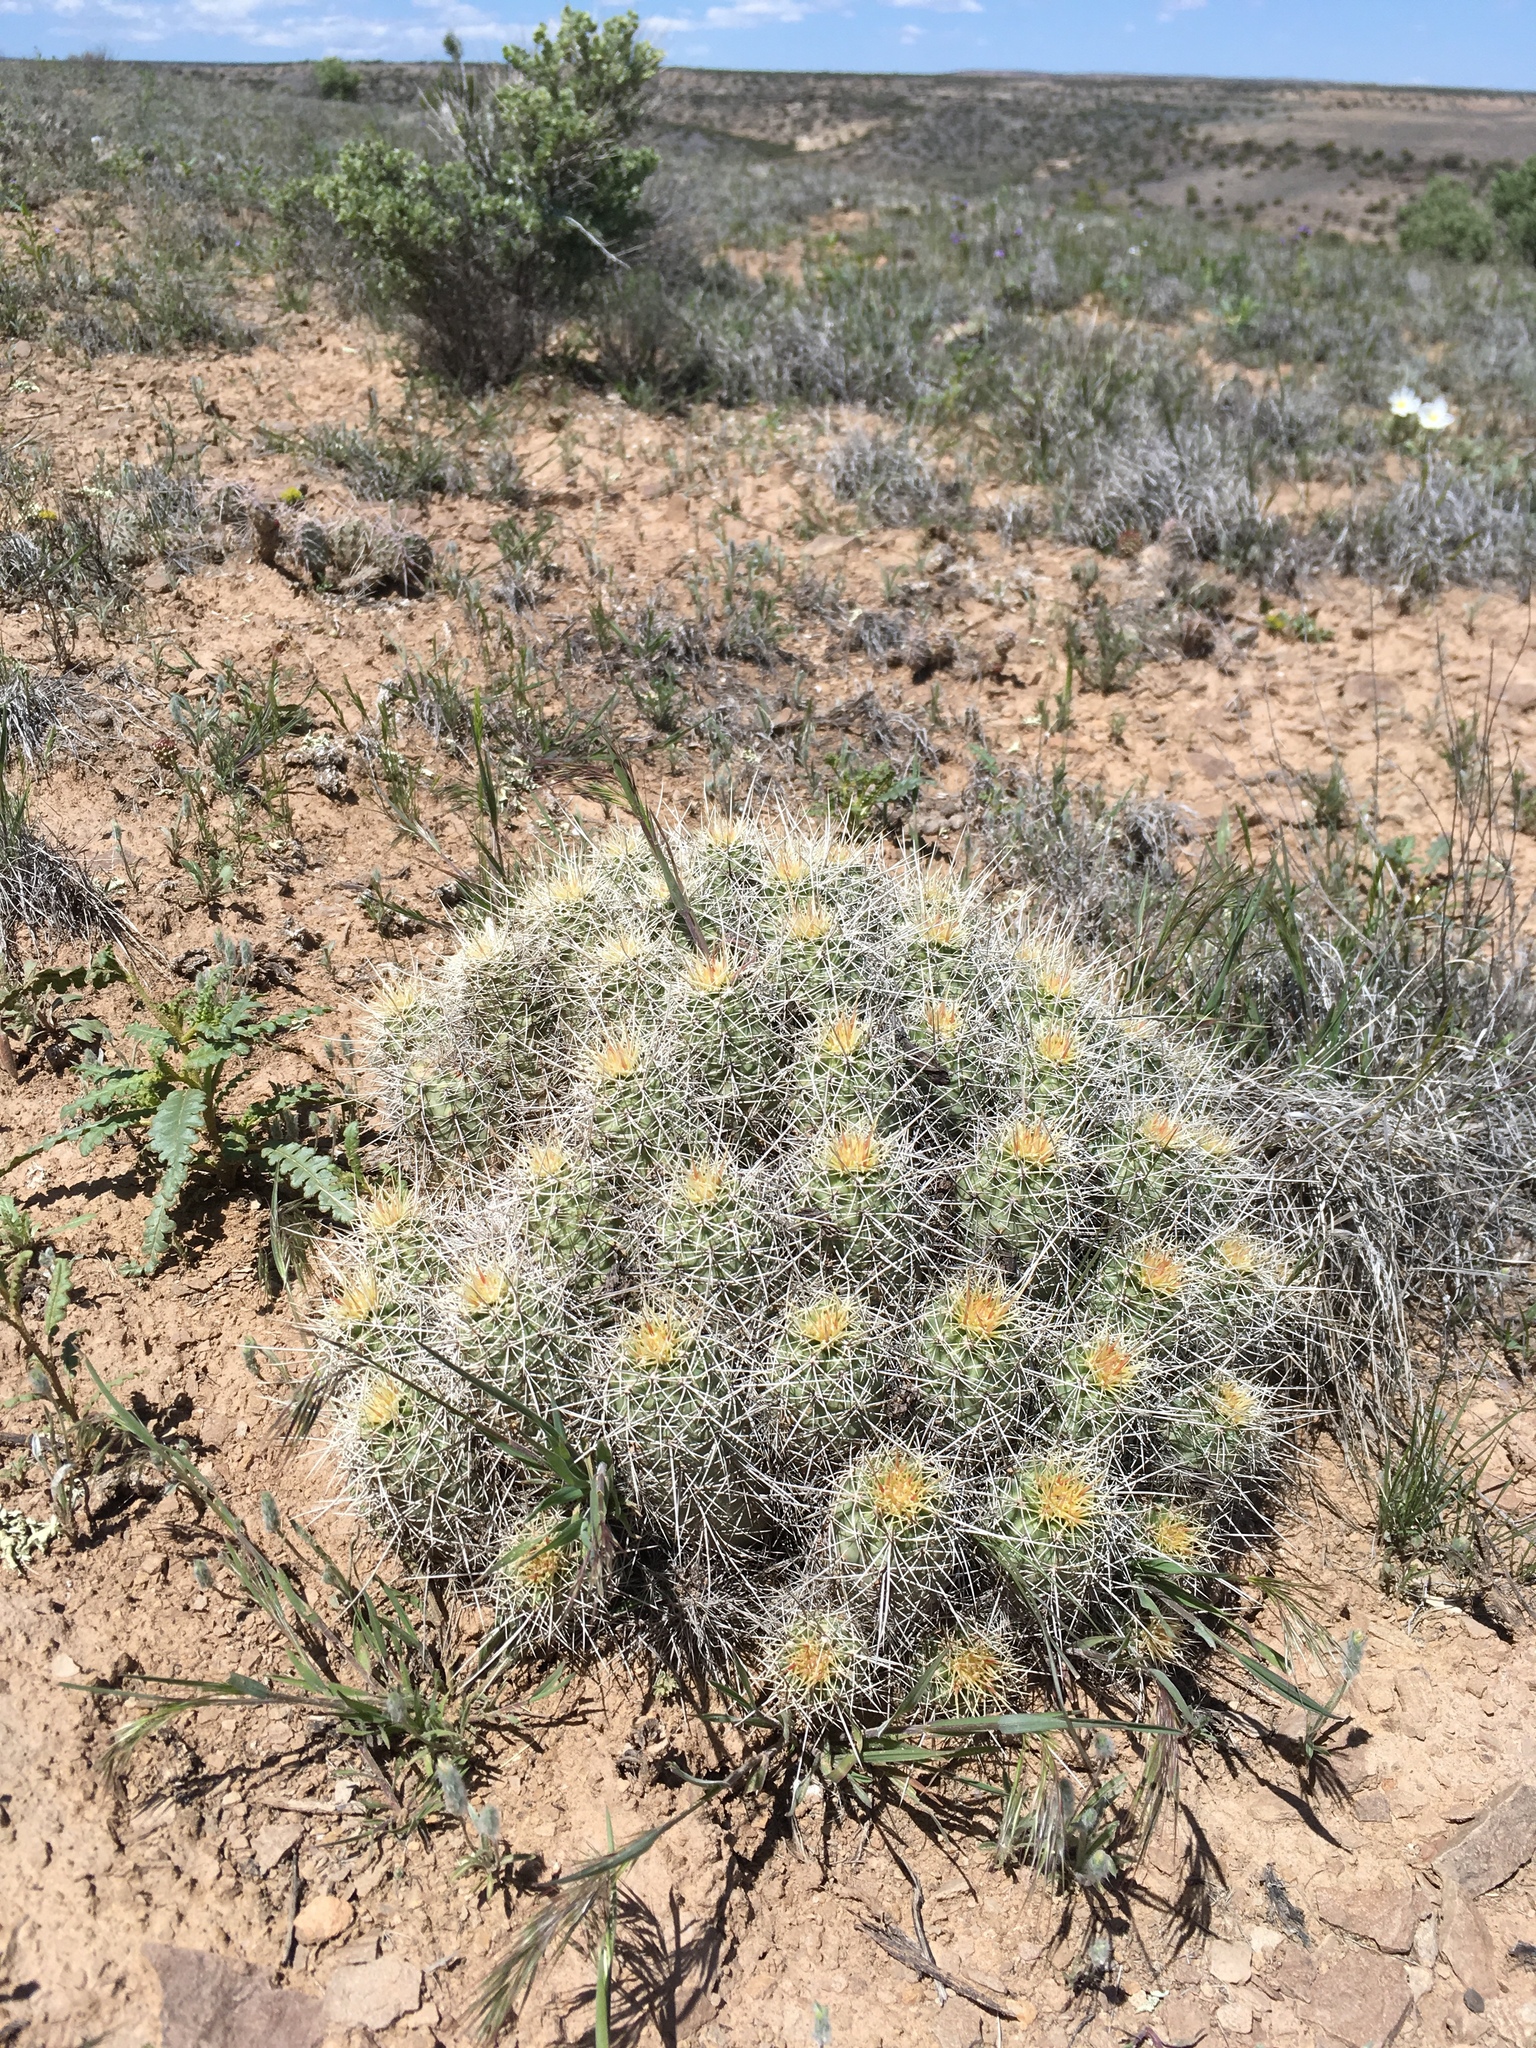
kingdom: Plantae
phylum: Tracheophyta
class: Magnoliopsida
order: Caryophyllales
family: Cactaceae
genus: Echinocereus
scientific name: Echinocereus triglochidiatus
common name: Claretcup hedgehog
